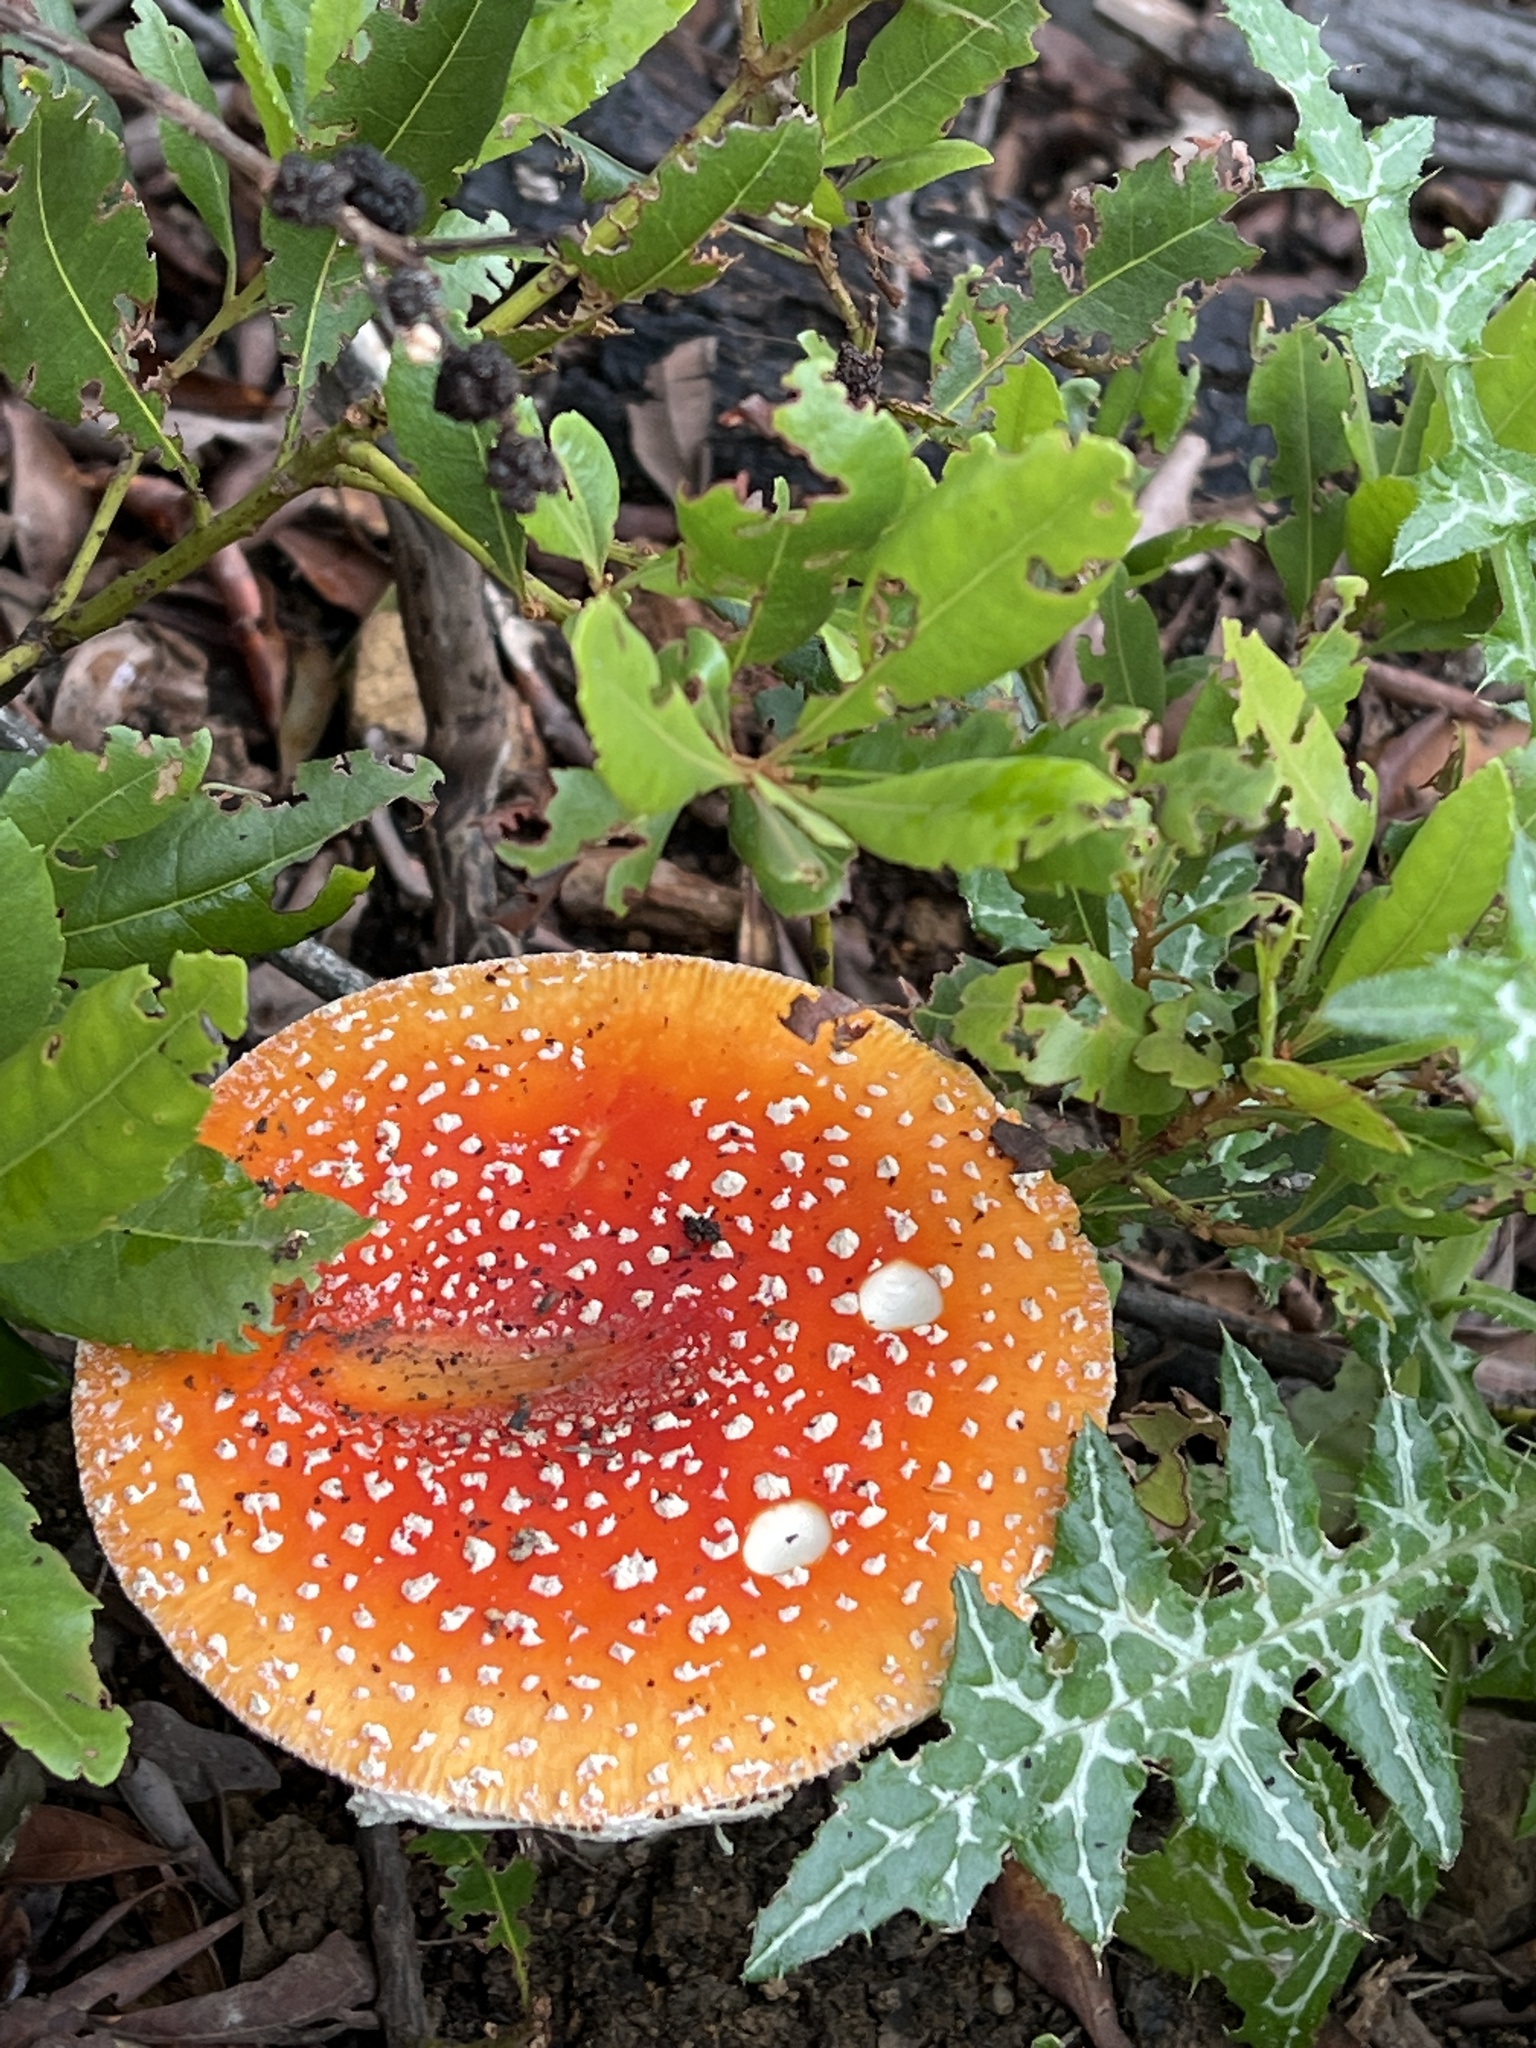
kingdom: Fungi
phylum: Basidiomycota
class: Agaricomycetes
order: Agaricales
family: Amanitaceae
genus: Amanita
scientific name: Amanita muscaria
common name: Fly agaric
